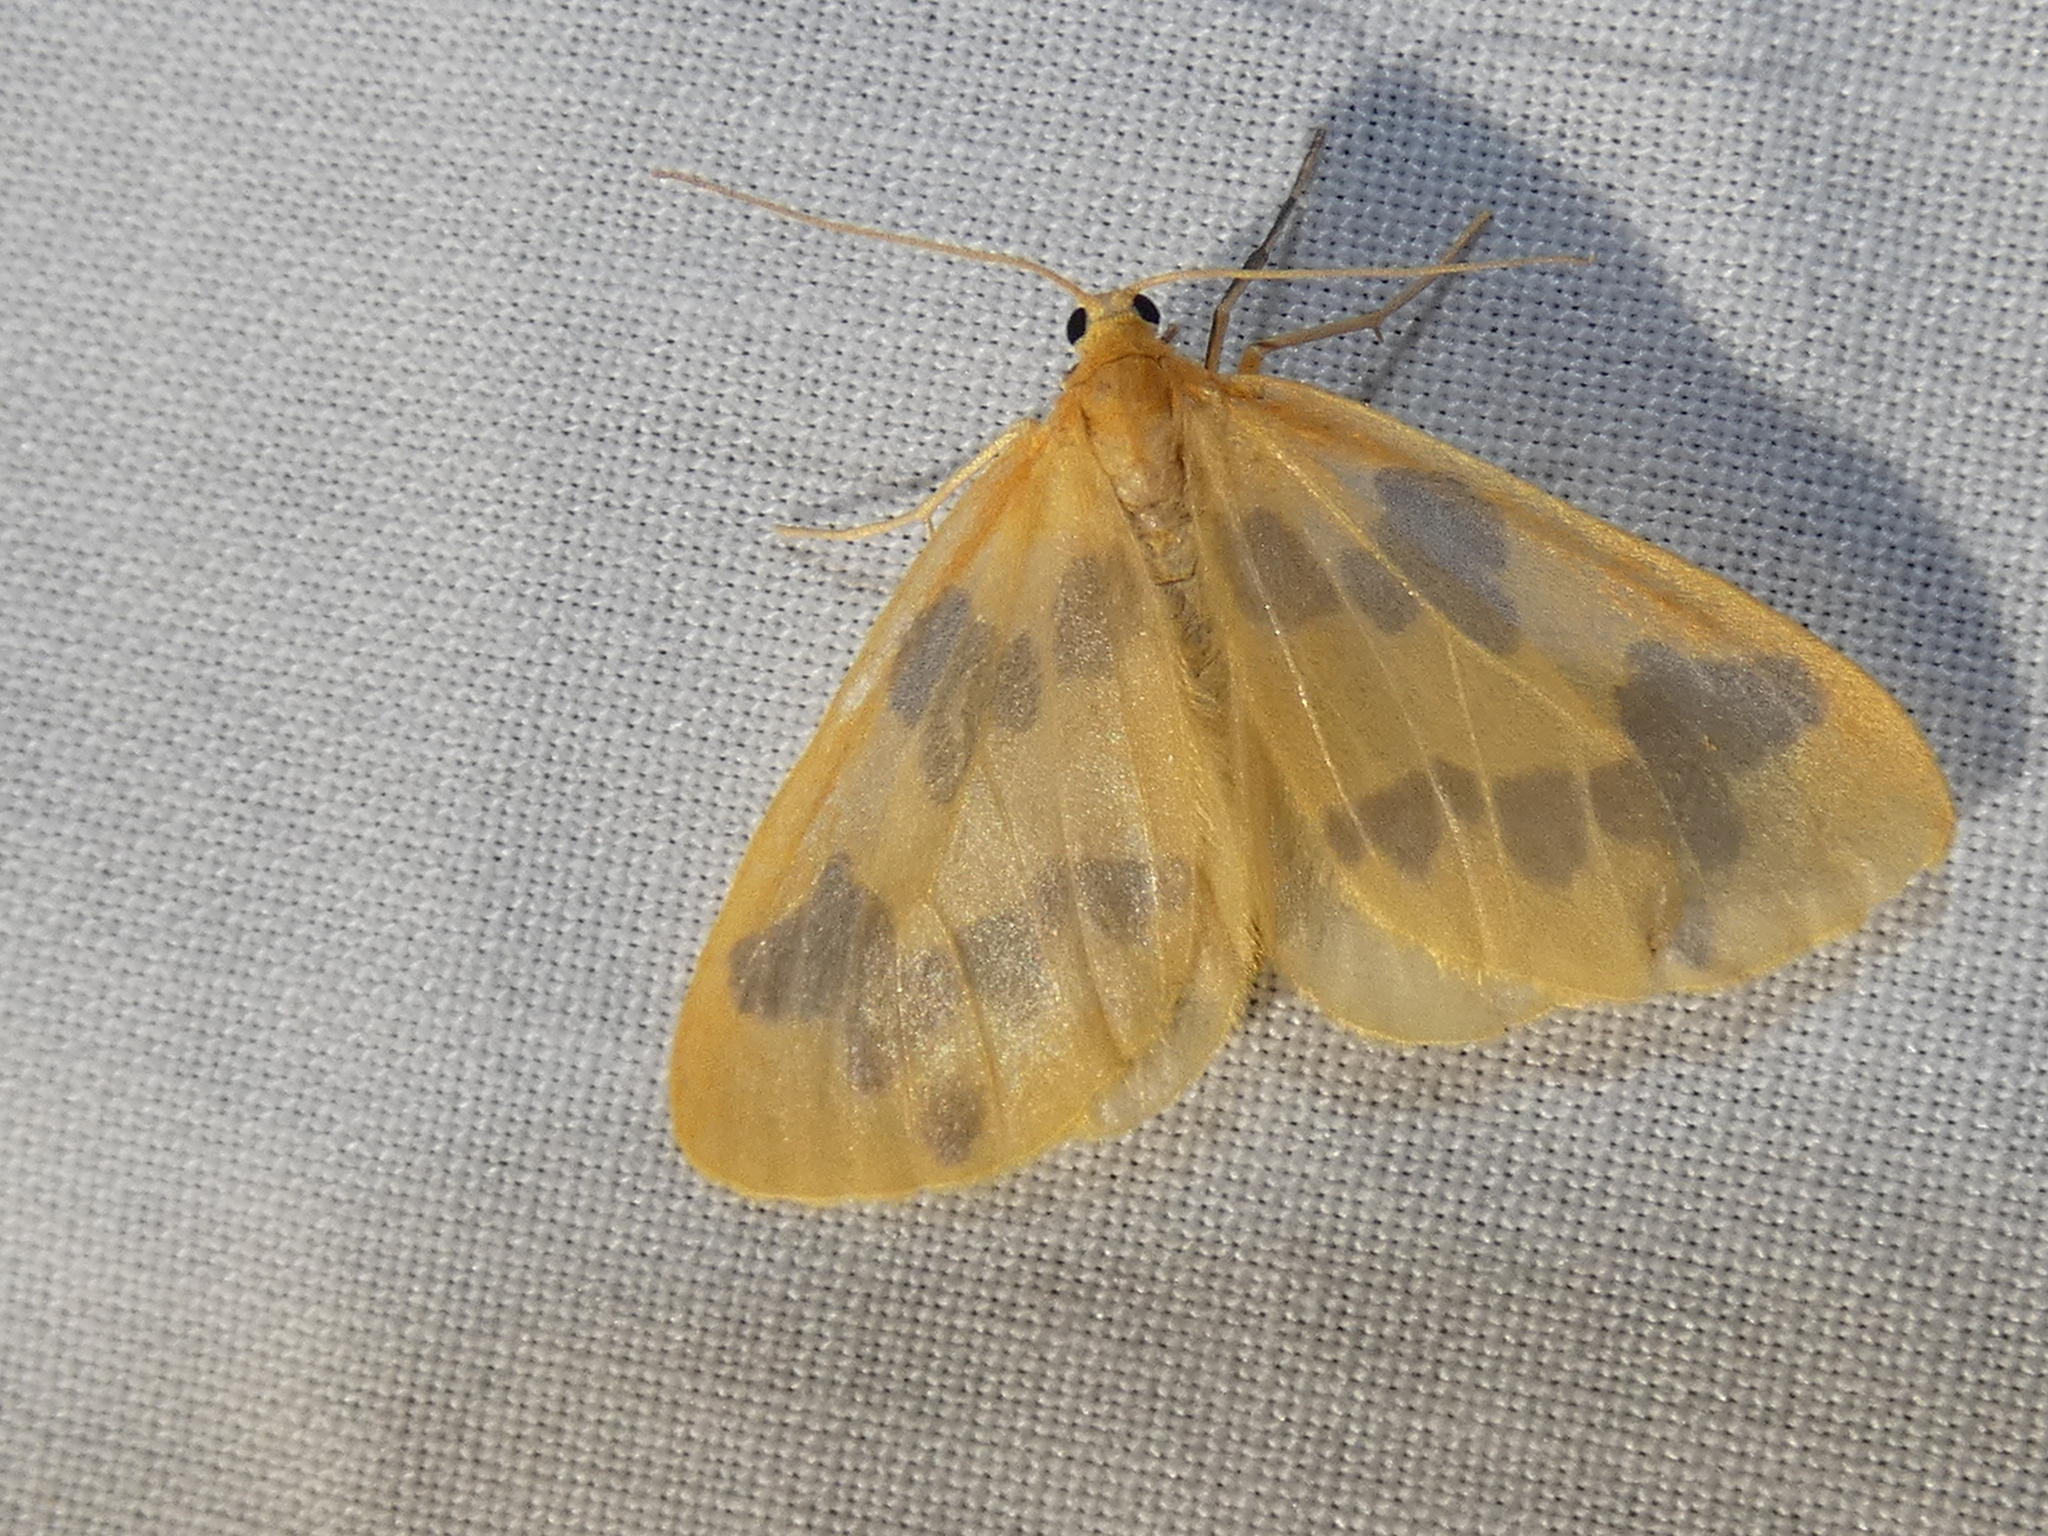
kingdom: Animalia
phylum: Arthropoda
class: Insecta
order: Lepidoptera
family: Geometridae
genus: Eubaphe
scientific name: Eubaphe mendica
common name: Beggar
